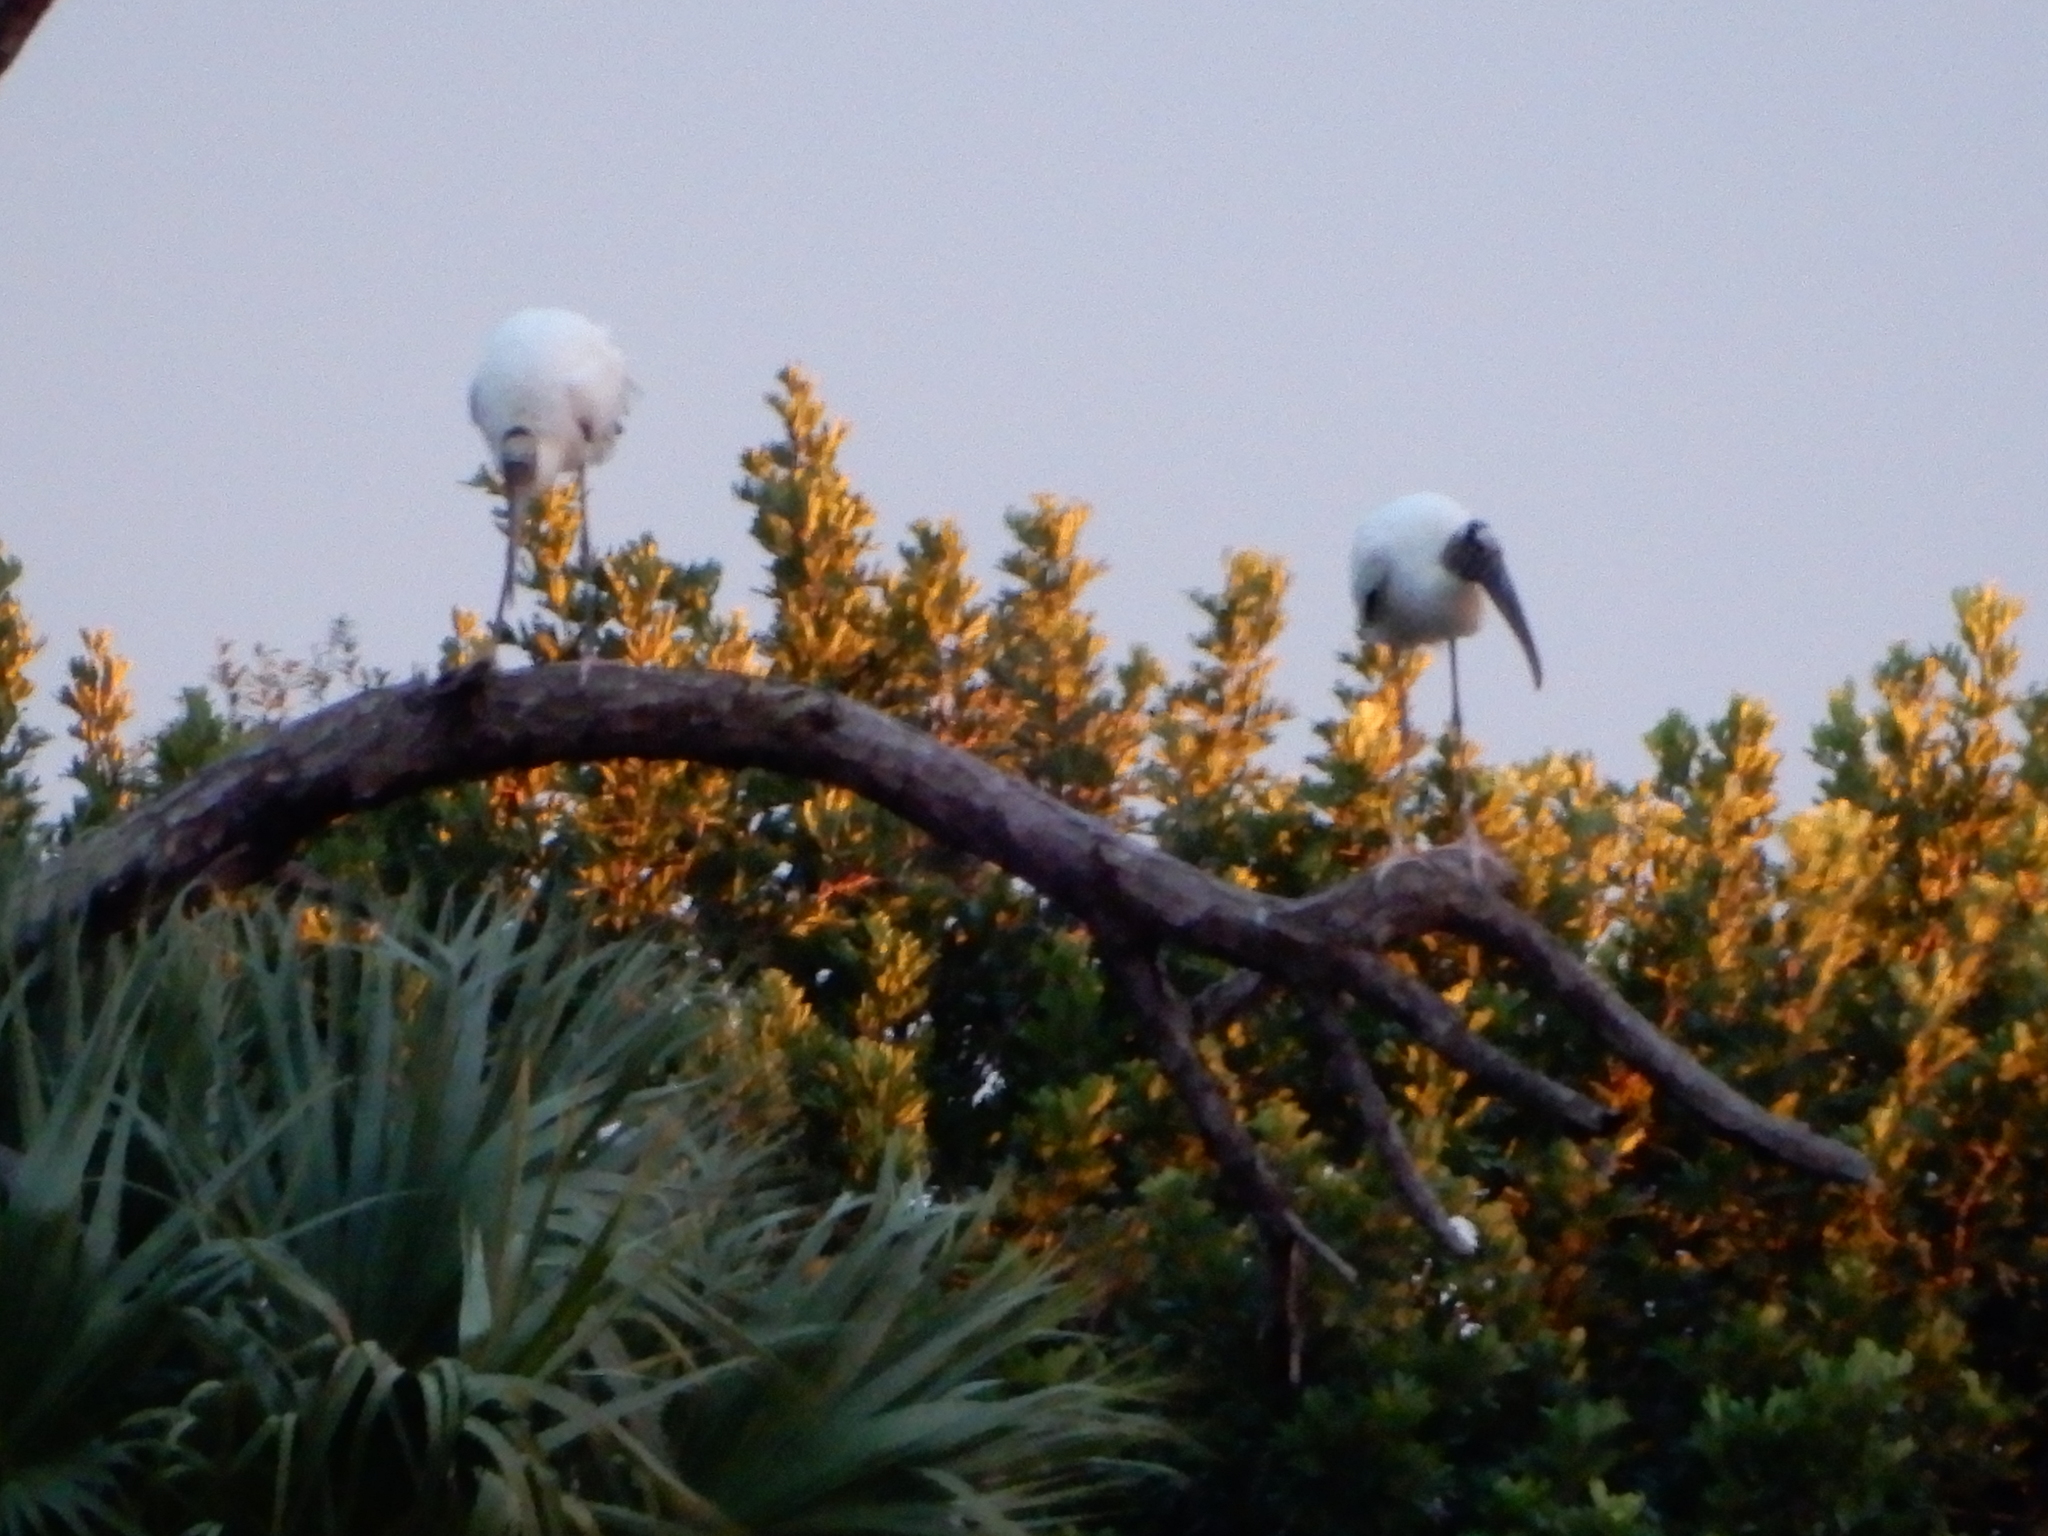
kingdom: Animalia
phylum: Chordata
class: Aves
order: Ciconiiformes
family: Ciconiidae
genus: Mycteria
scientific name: Mycteria americana
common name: Wood stork
